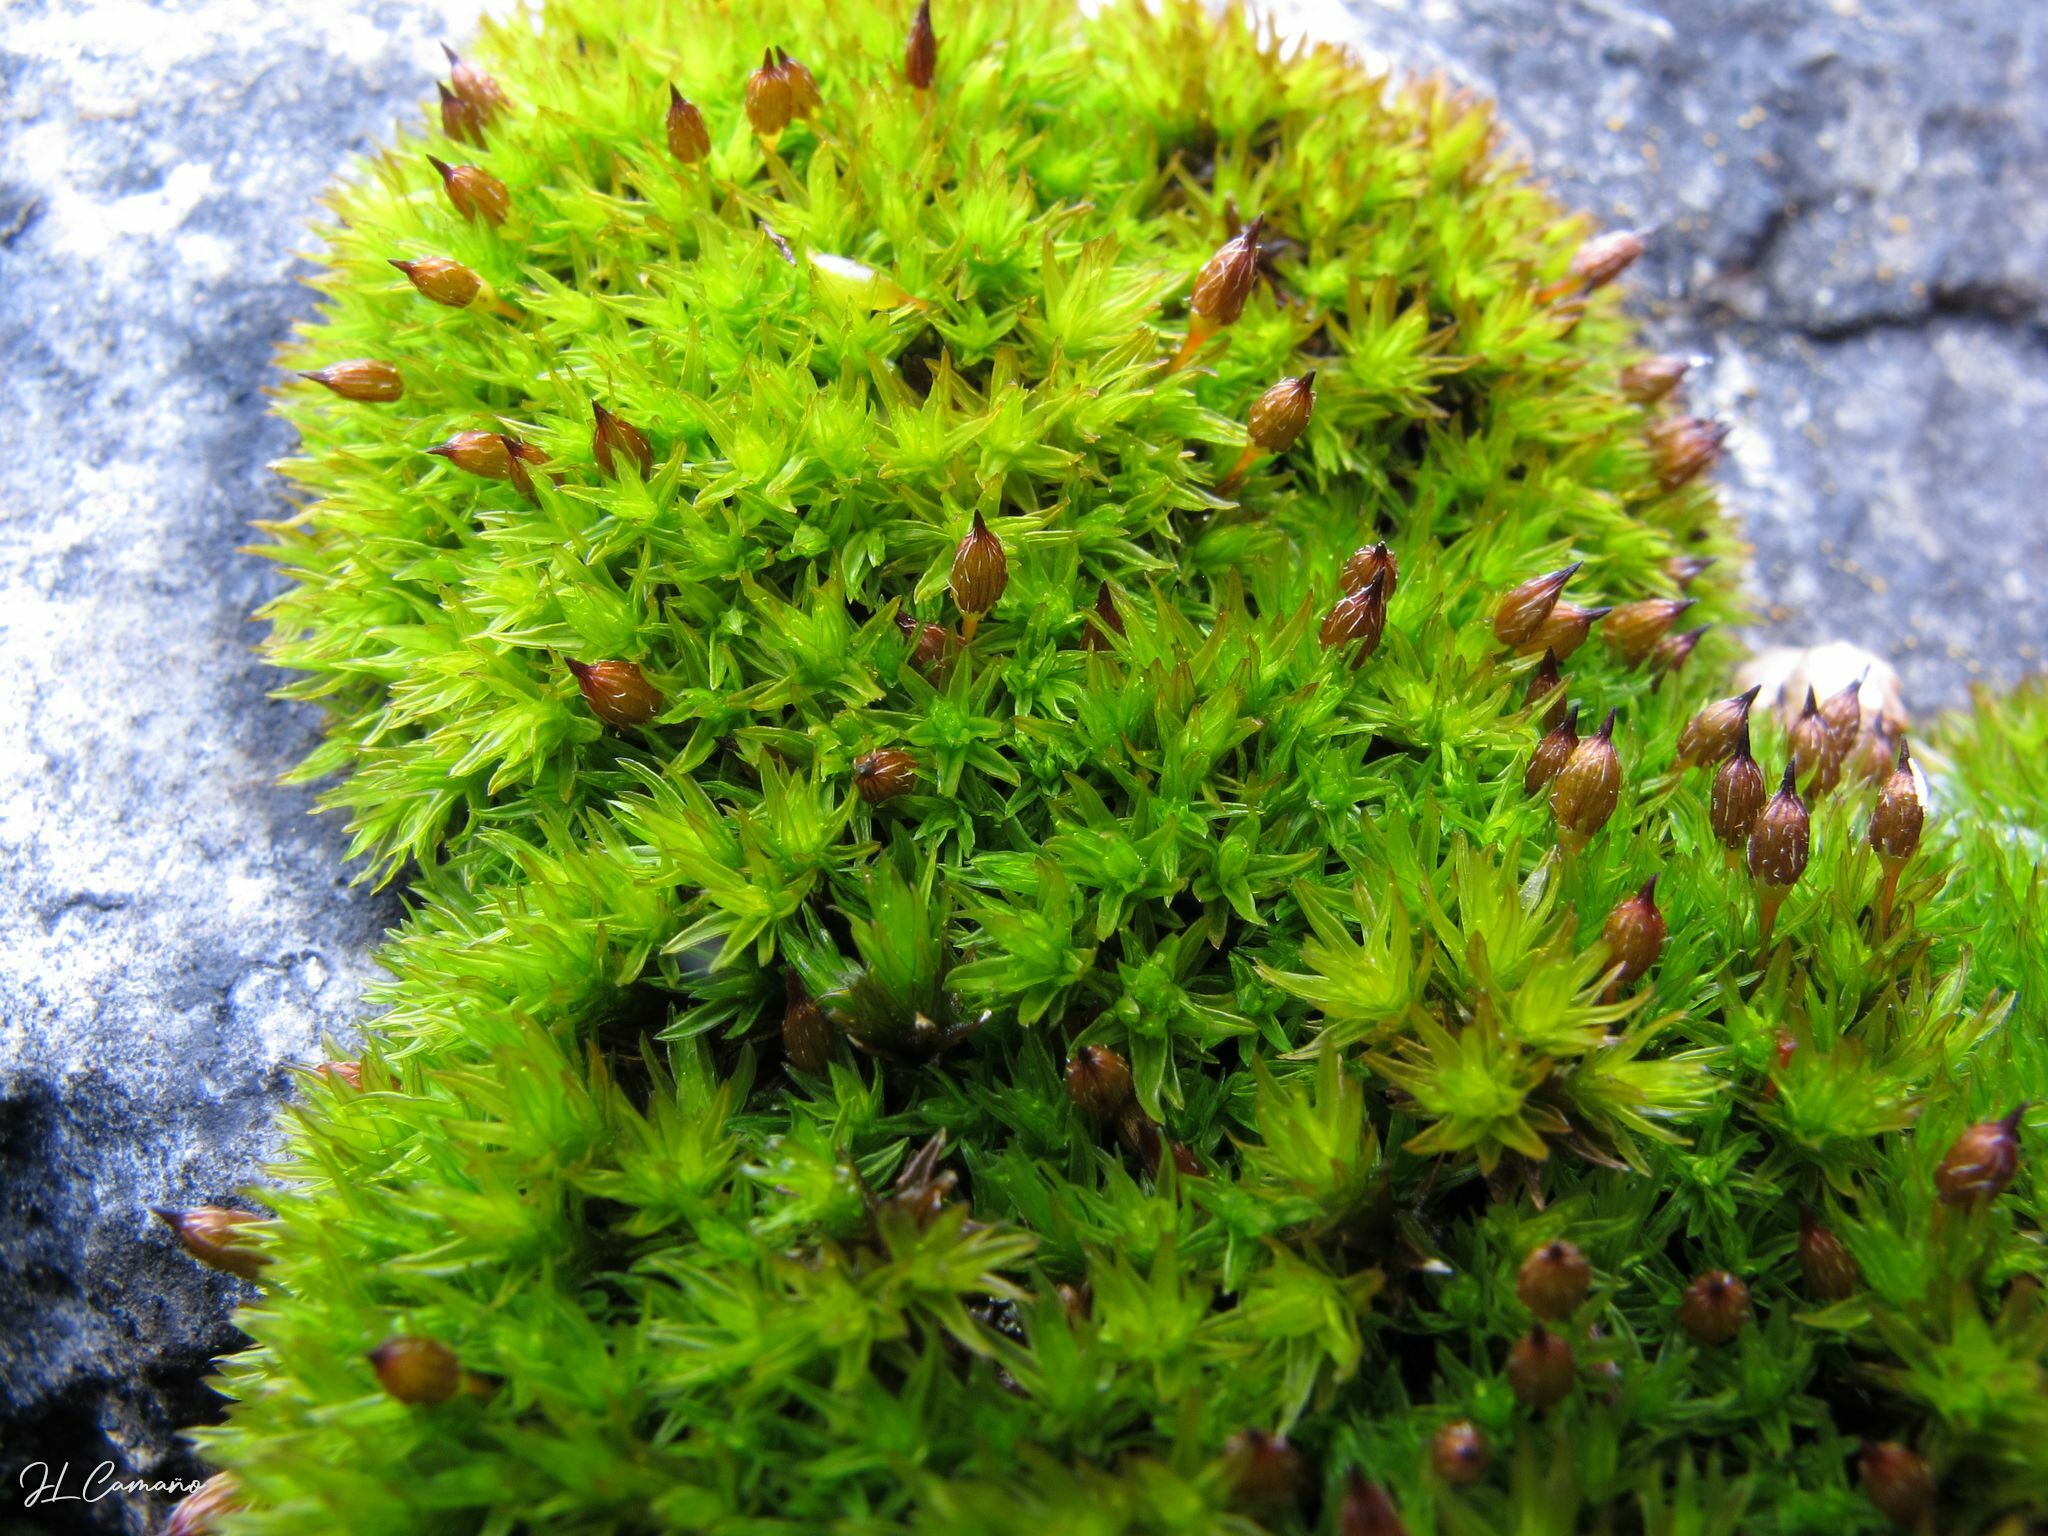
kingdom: Plantae
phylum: Bryophyta
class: Bryopsida
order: Orthotrichales
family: Orthotrichaceae
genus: Orthotrichum
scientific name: Orthotrichum anomalum
